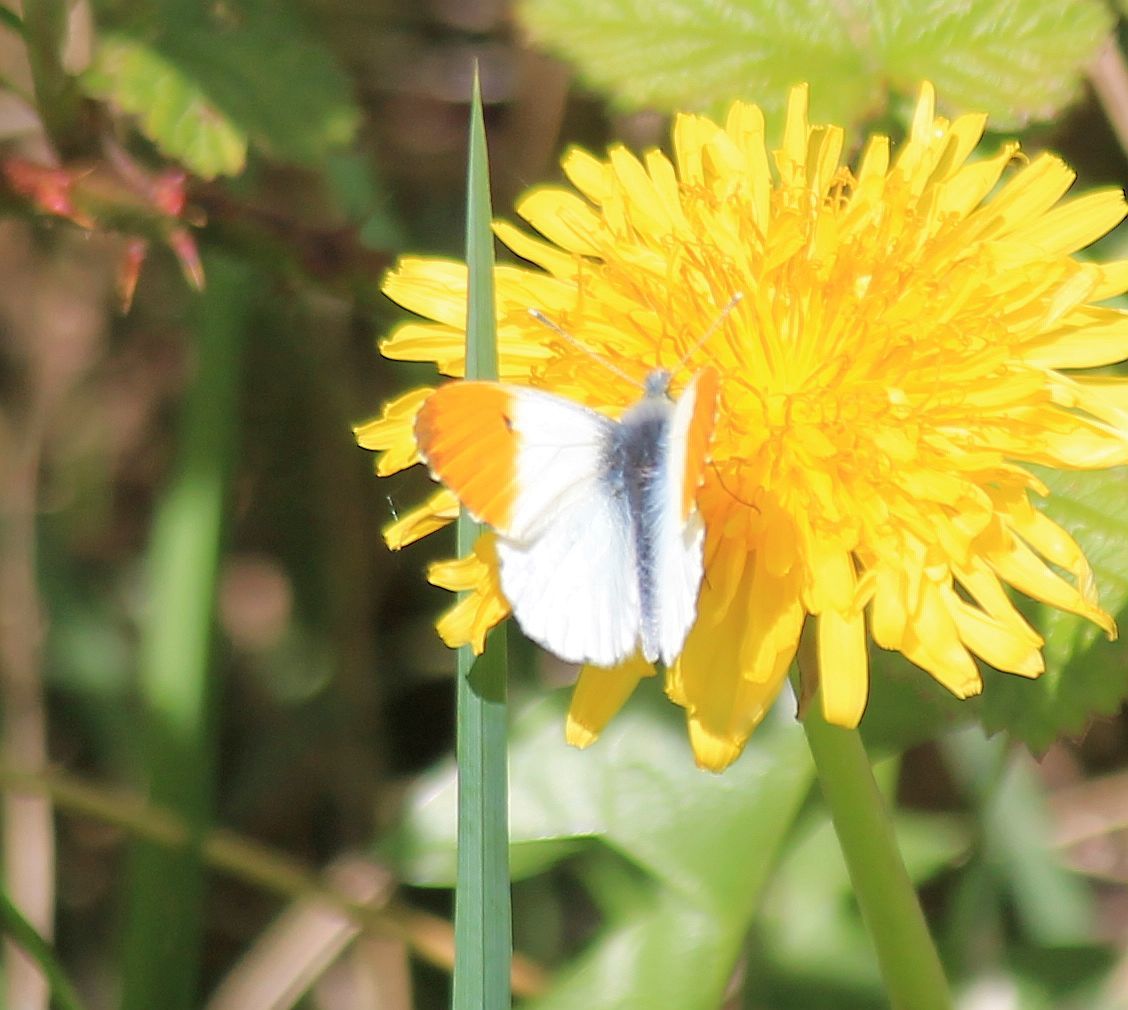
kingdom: Animalia
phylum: Arthropoda
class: Insecta
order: Lepidoptera
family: Pieridae
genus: Anthocharis
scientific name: Anthocharis cardamines
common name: Orange-tip
